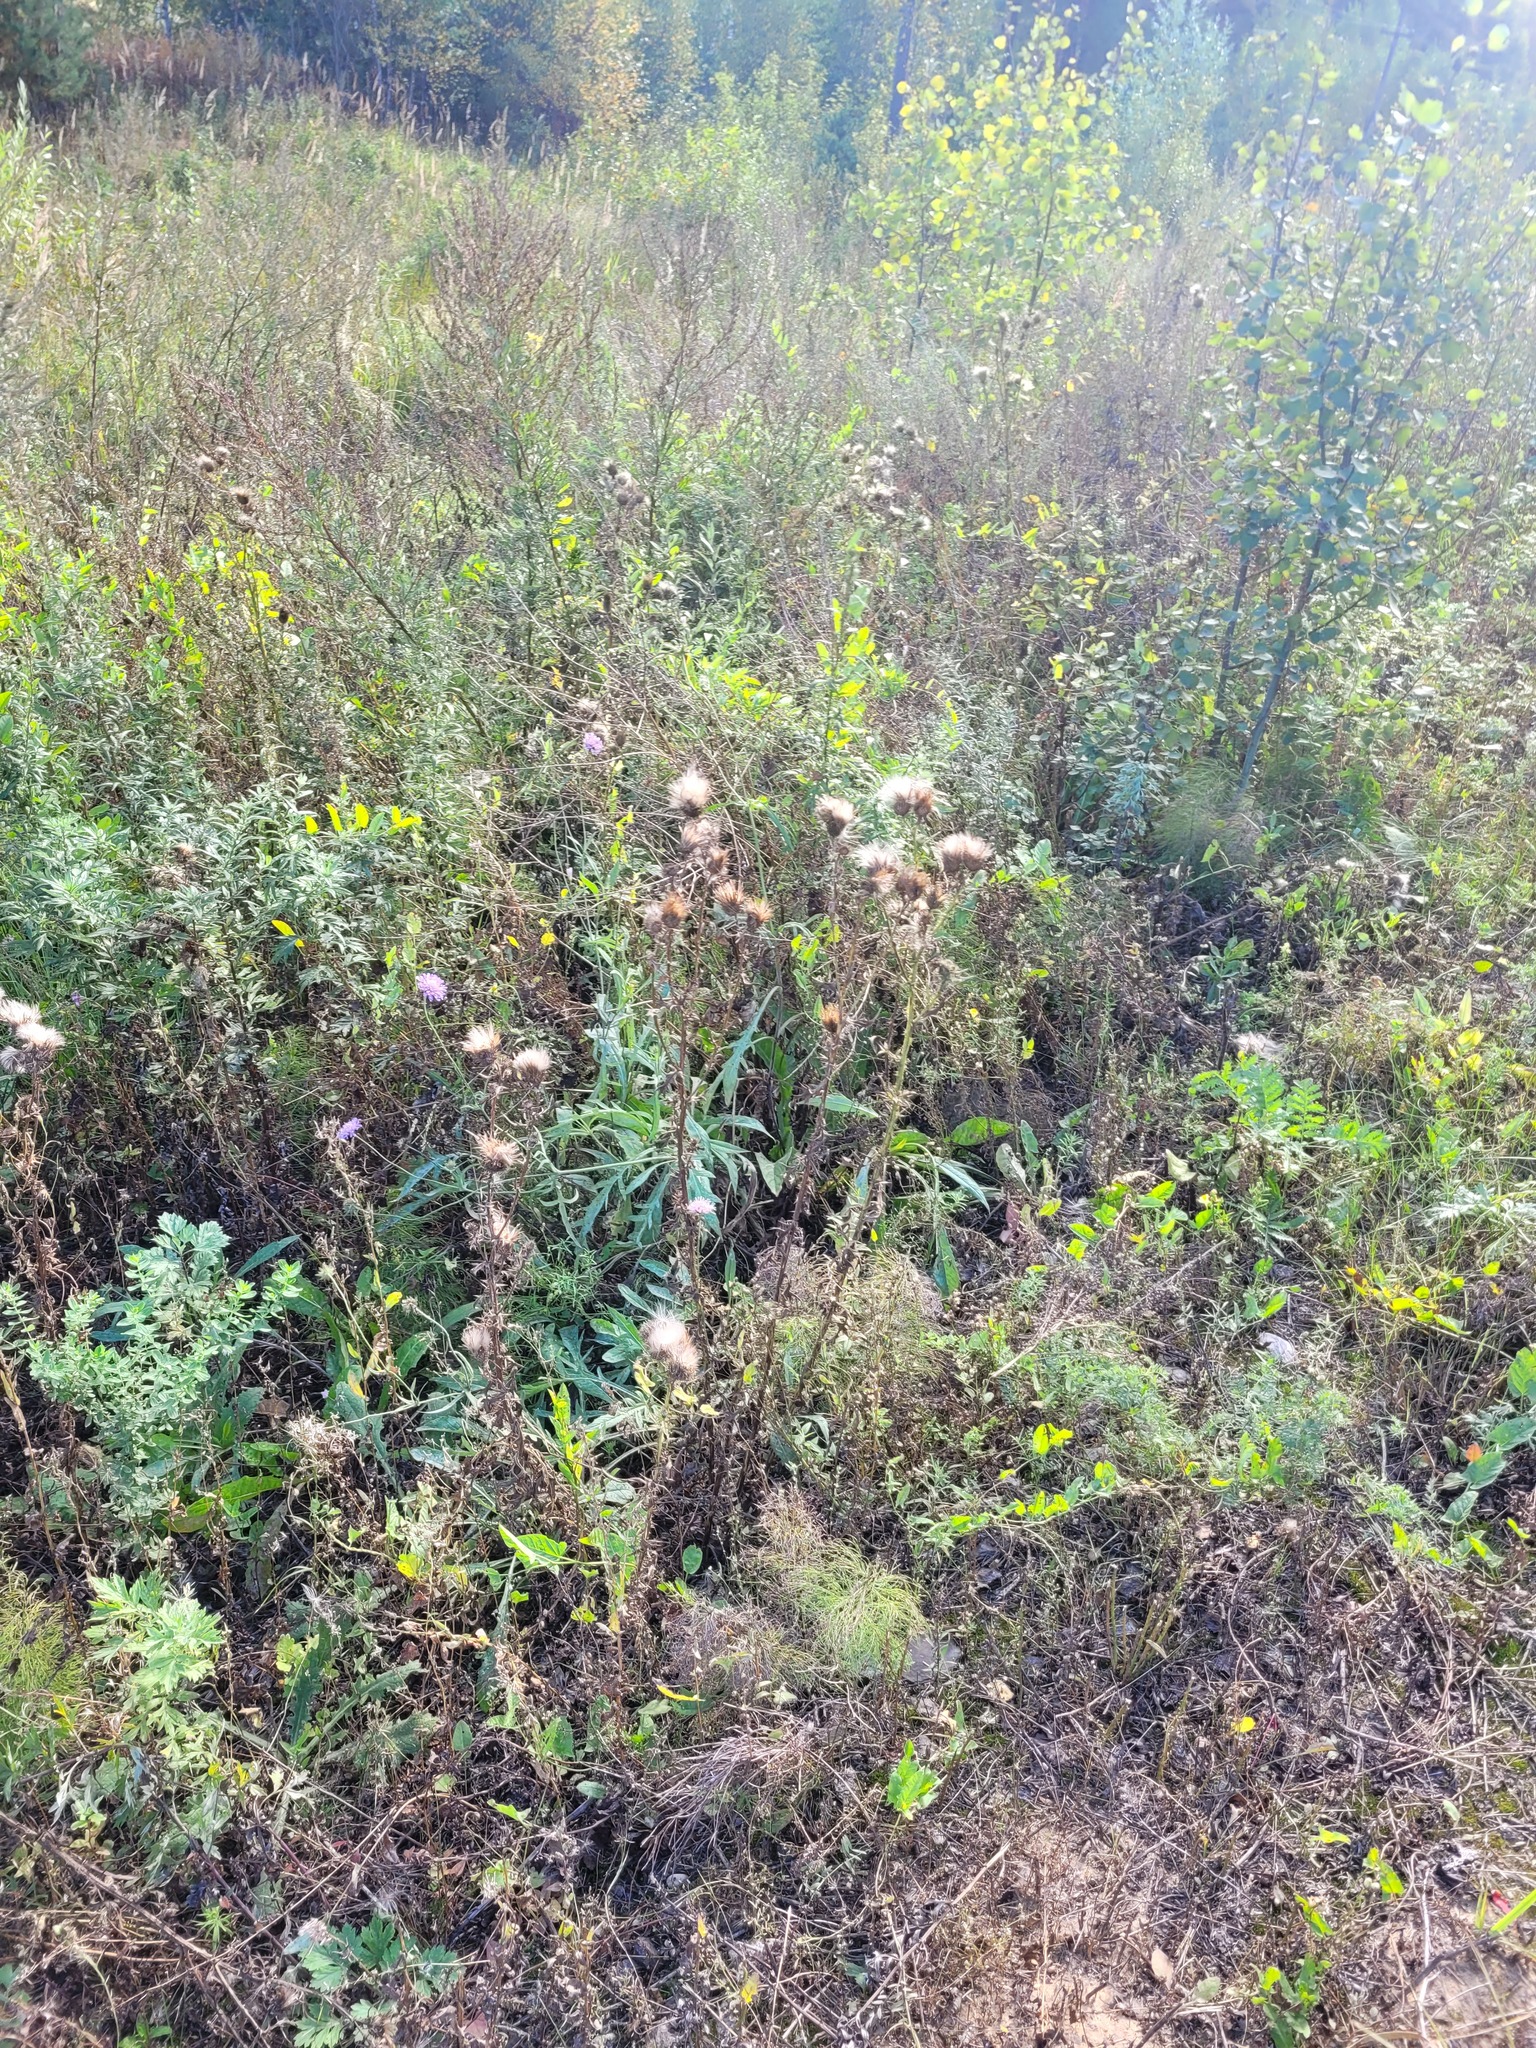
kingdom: Plantae
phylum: Tracheophyta
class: Magnoliopsida
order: Asterales
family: Asteraceae
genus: Cirsium
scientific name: Cirsium vulgare
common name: Bull thistle
